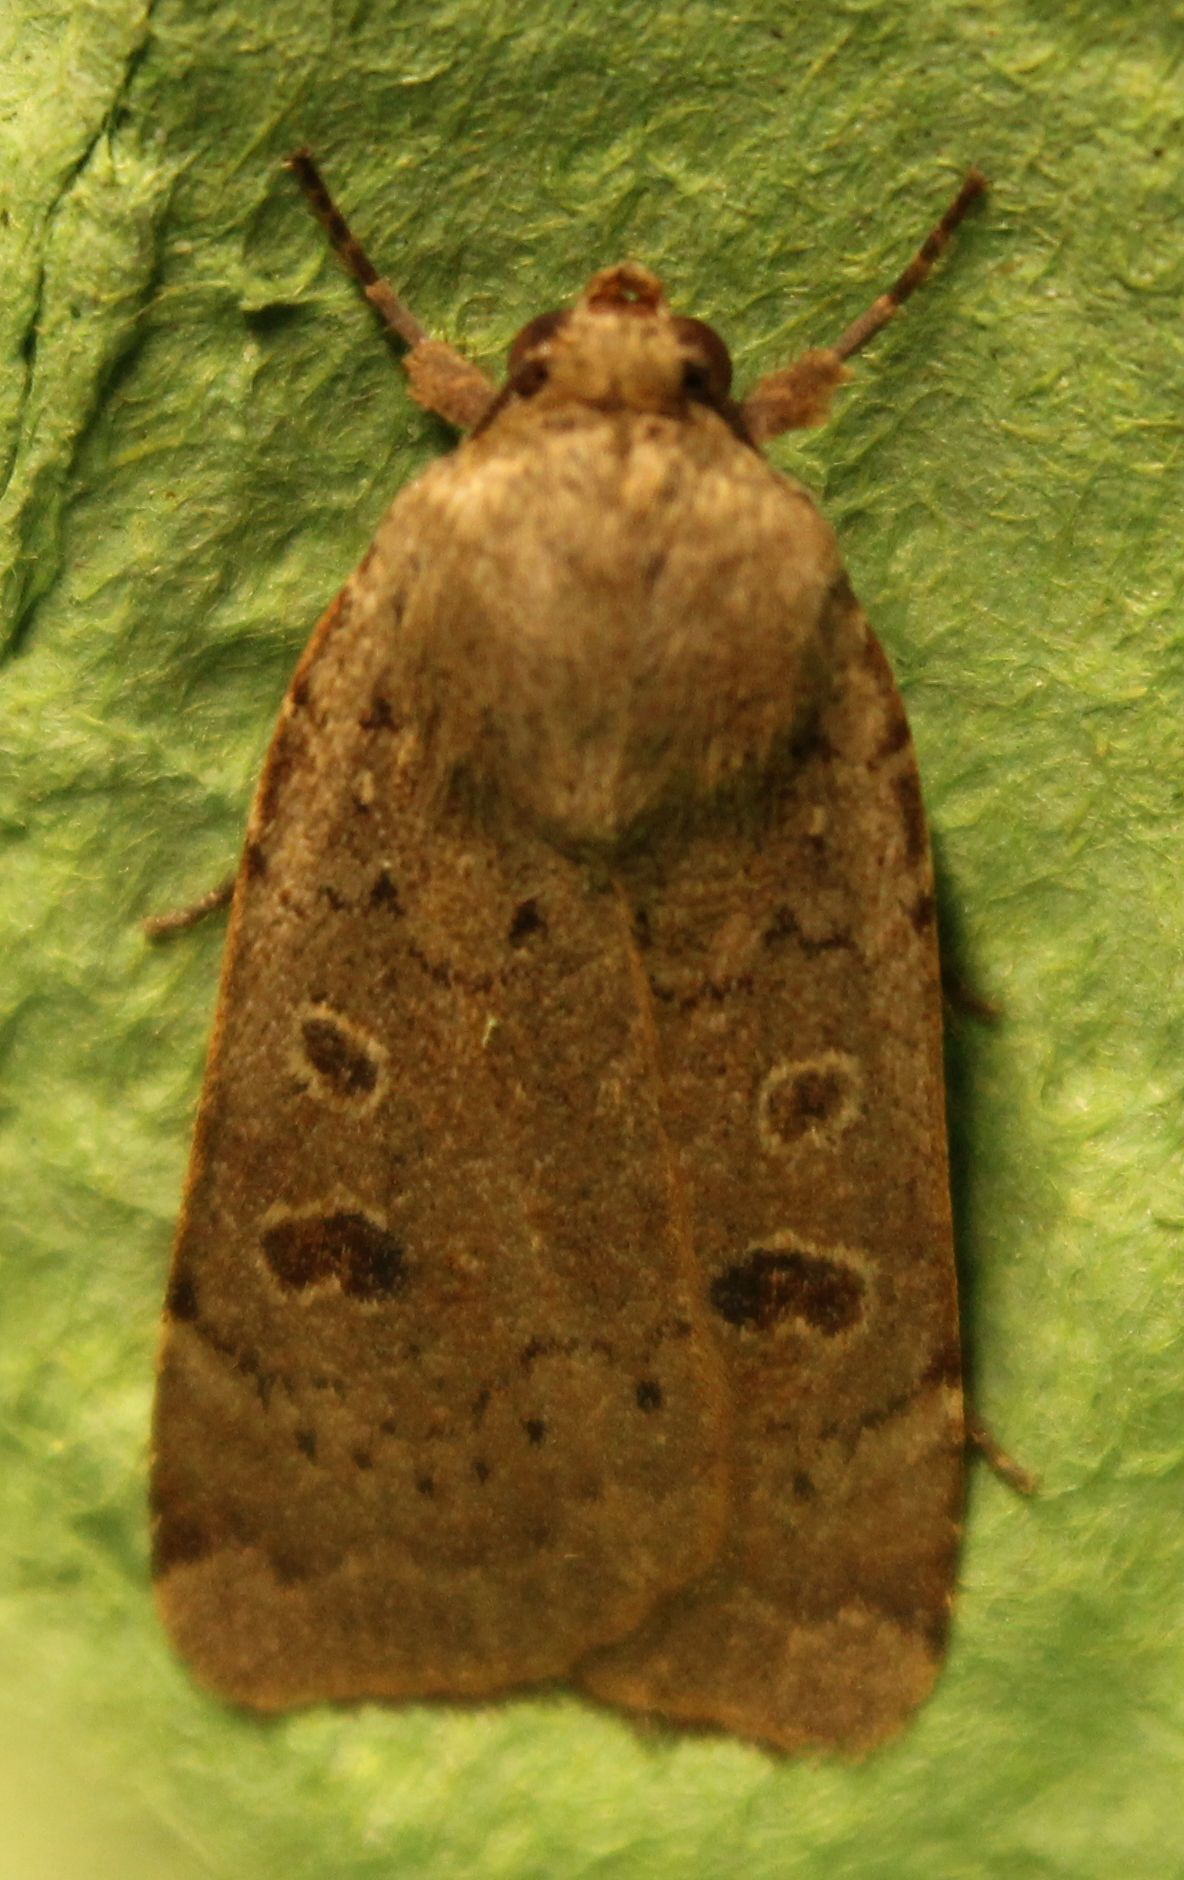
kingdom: Animalia
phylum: Arthropoda
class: Insecta
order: Lepidoptera
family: Noctuidae
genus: Noctua
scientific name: Noctua comes
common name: Lesser yellow underwing
